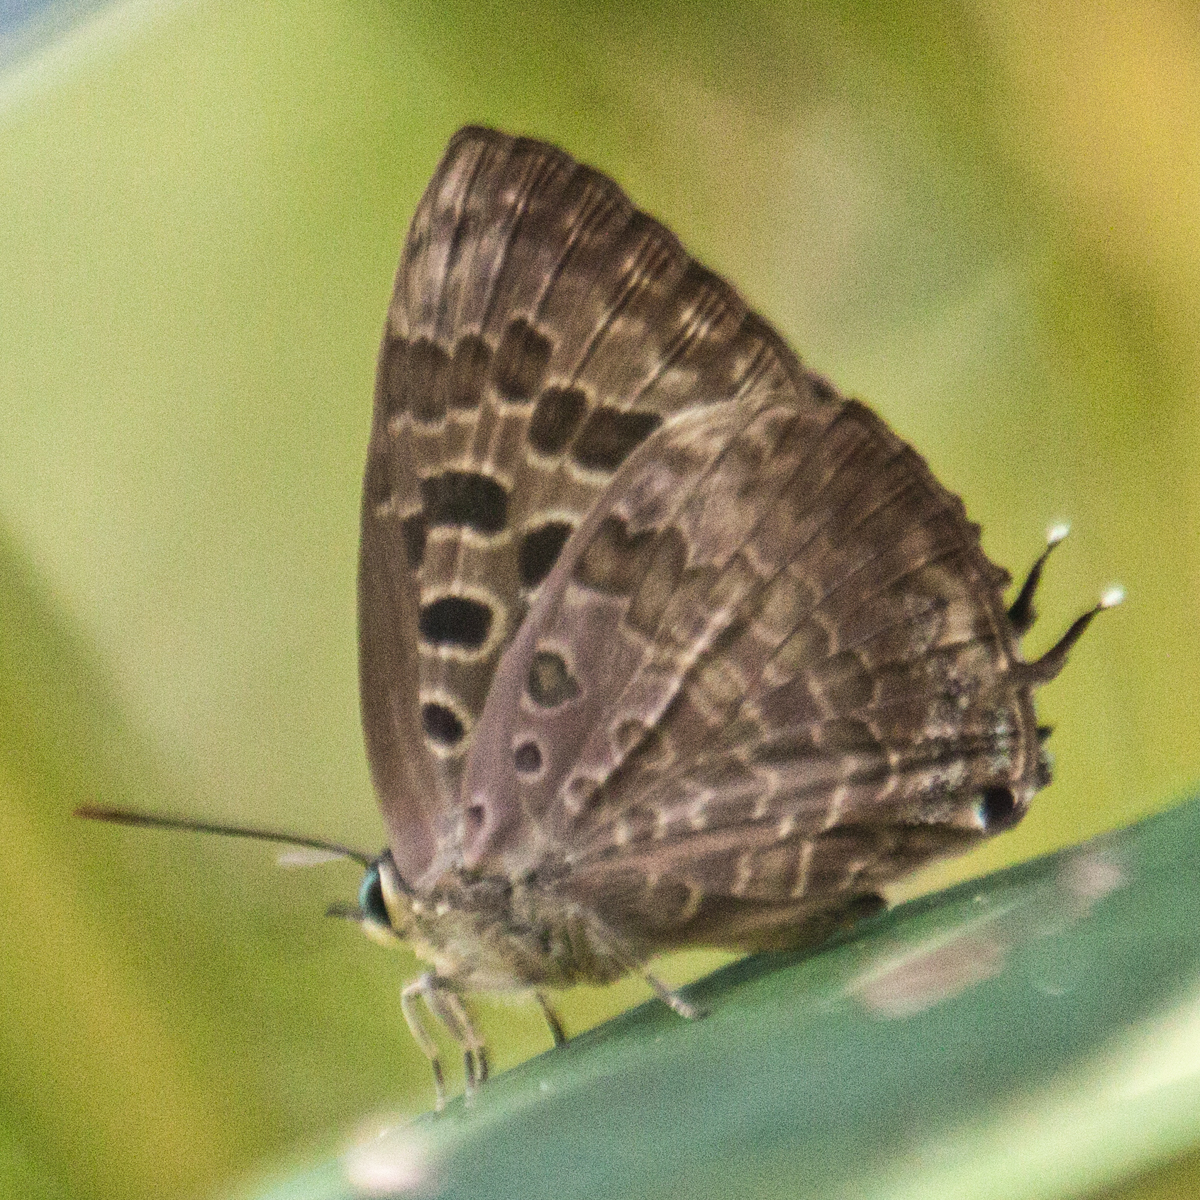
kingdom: Animalia
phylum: Arthropoda
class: Insecta
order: Lepidoptera
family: Lycaenidae
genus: Arhopala
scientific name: Arhopala bazalus
